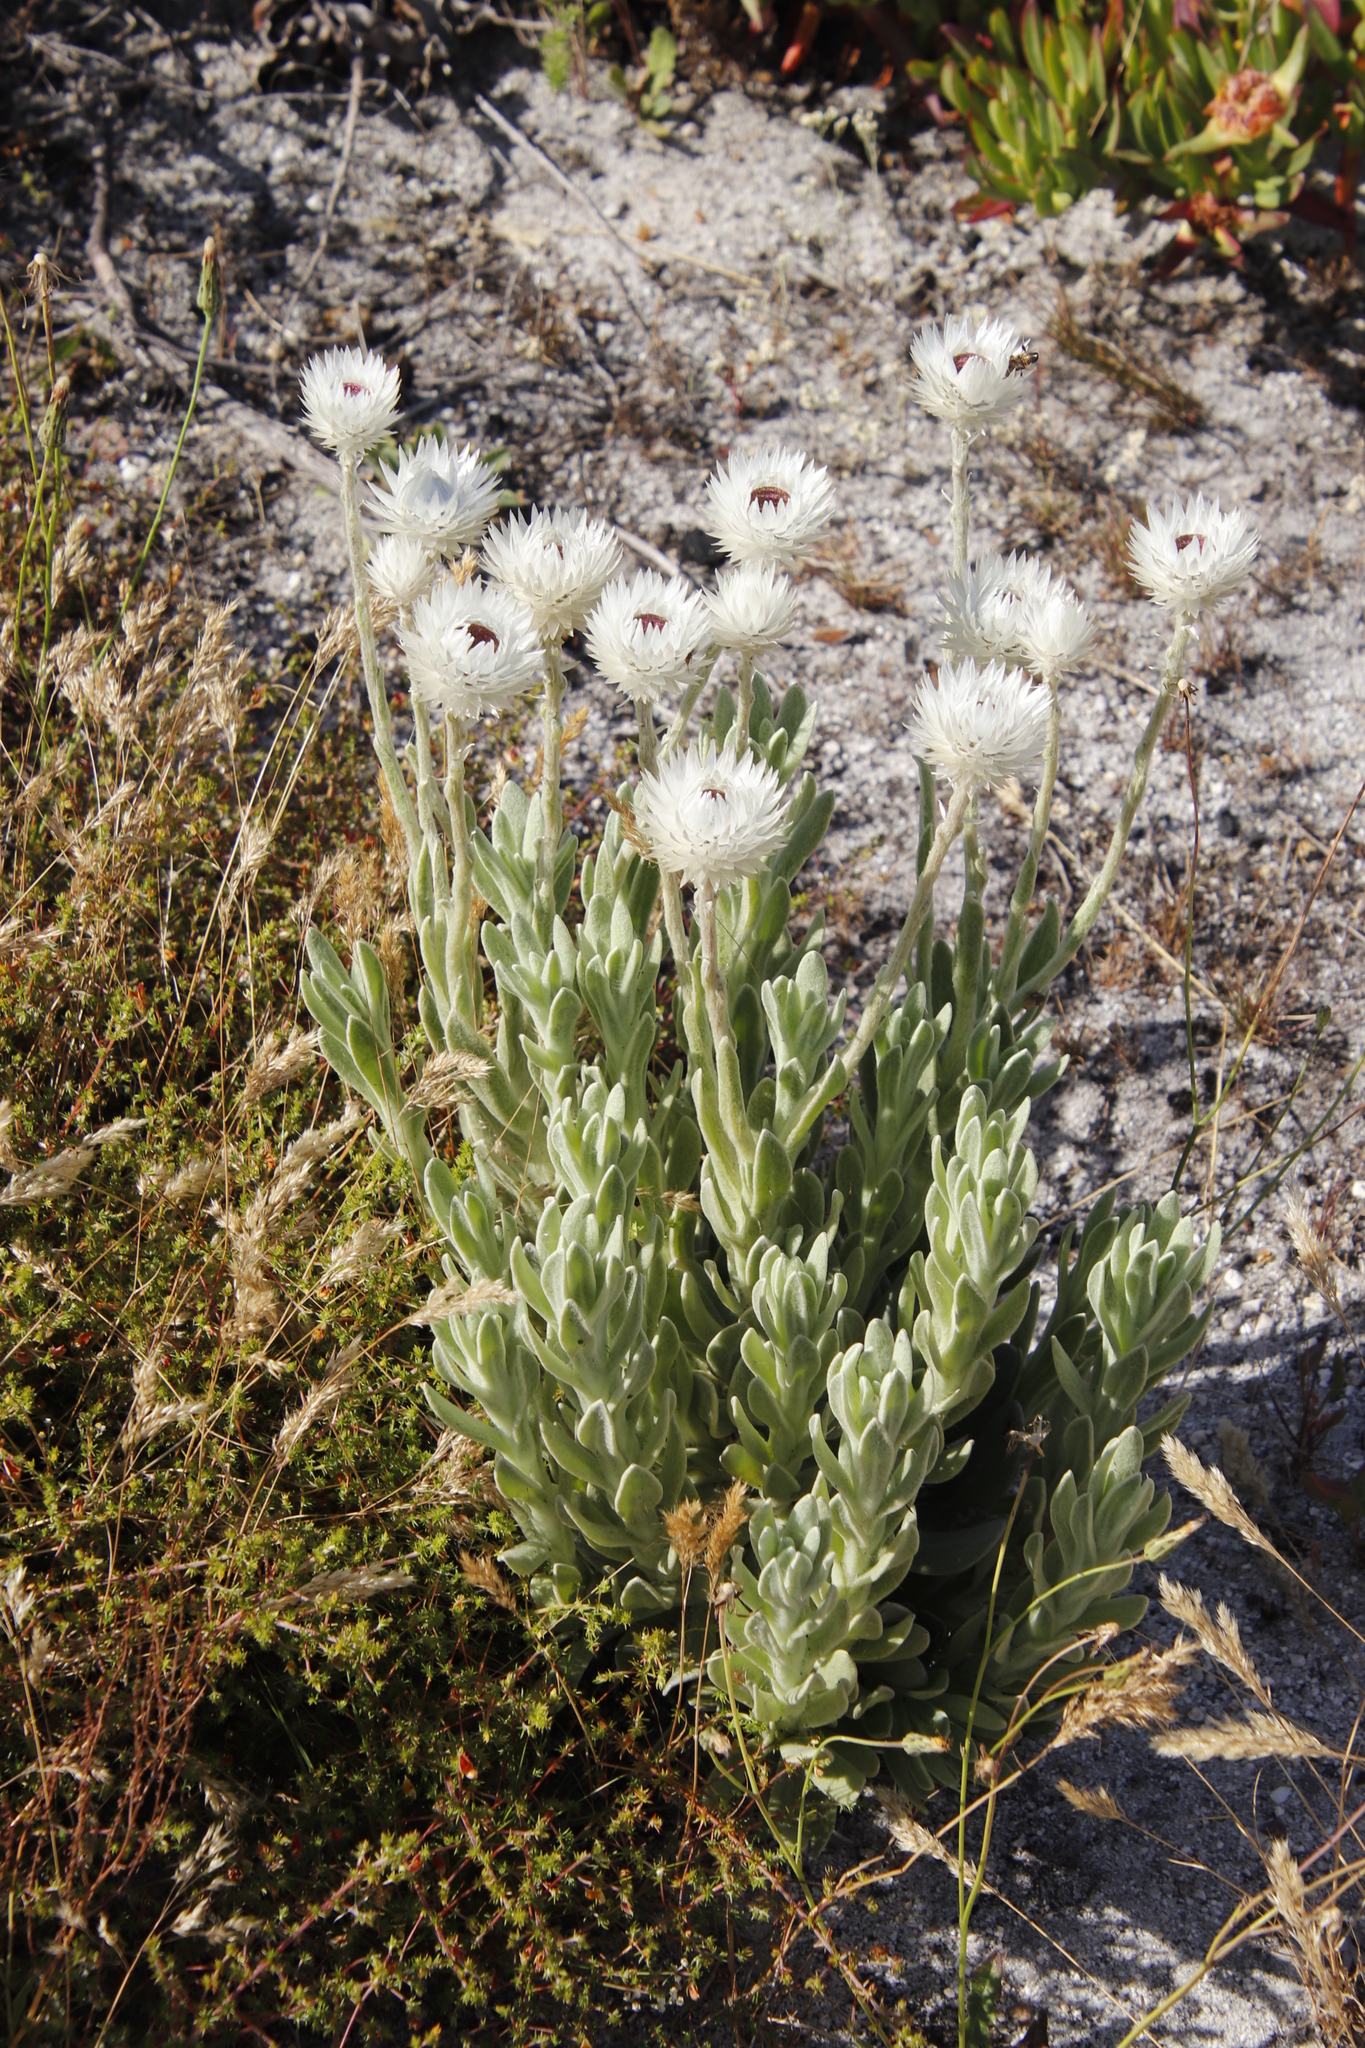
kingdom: Plantae
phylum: Tracheophyta
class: Magnoliopsida
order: Asterales
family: Asteraceae
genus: Syncarpha
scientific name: Syncarpha vestita
